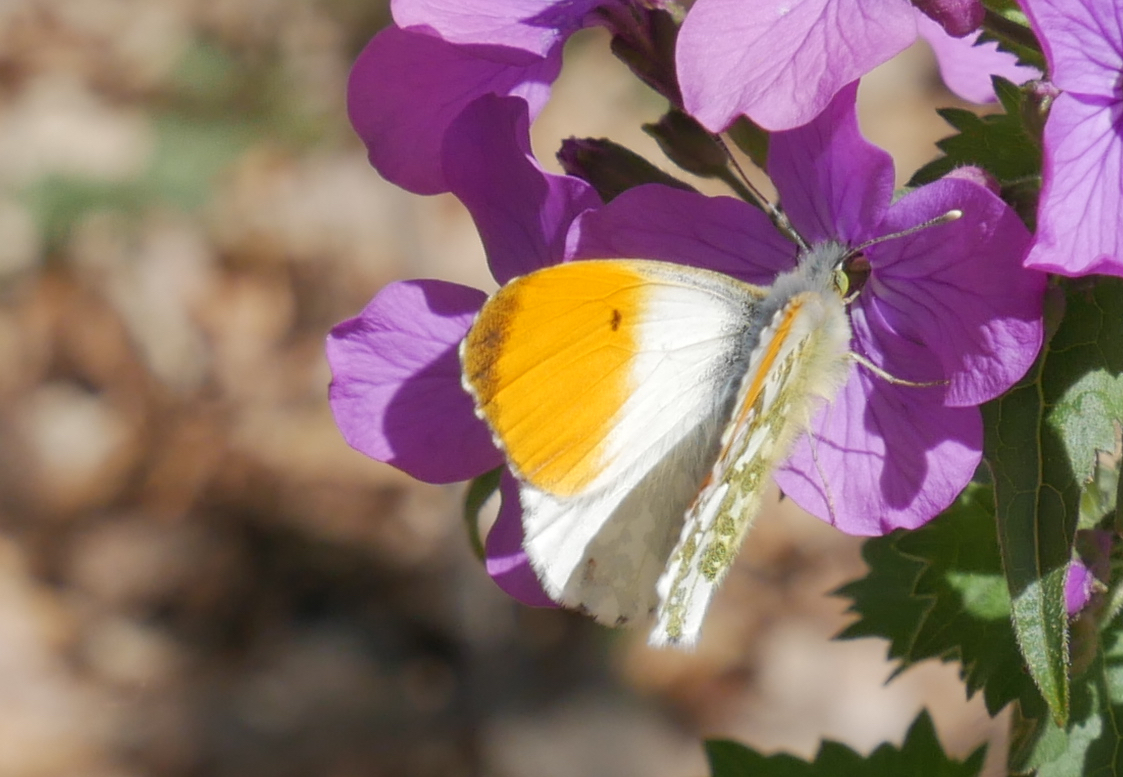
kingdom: Animalia
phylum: Arthropoda
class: Insecta
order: Lepidoptera
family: Pieridae
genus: Anthocharis
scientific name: Anthocharis cardamines
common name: Orange-tip
